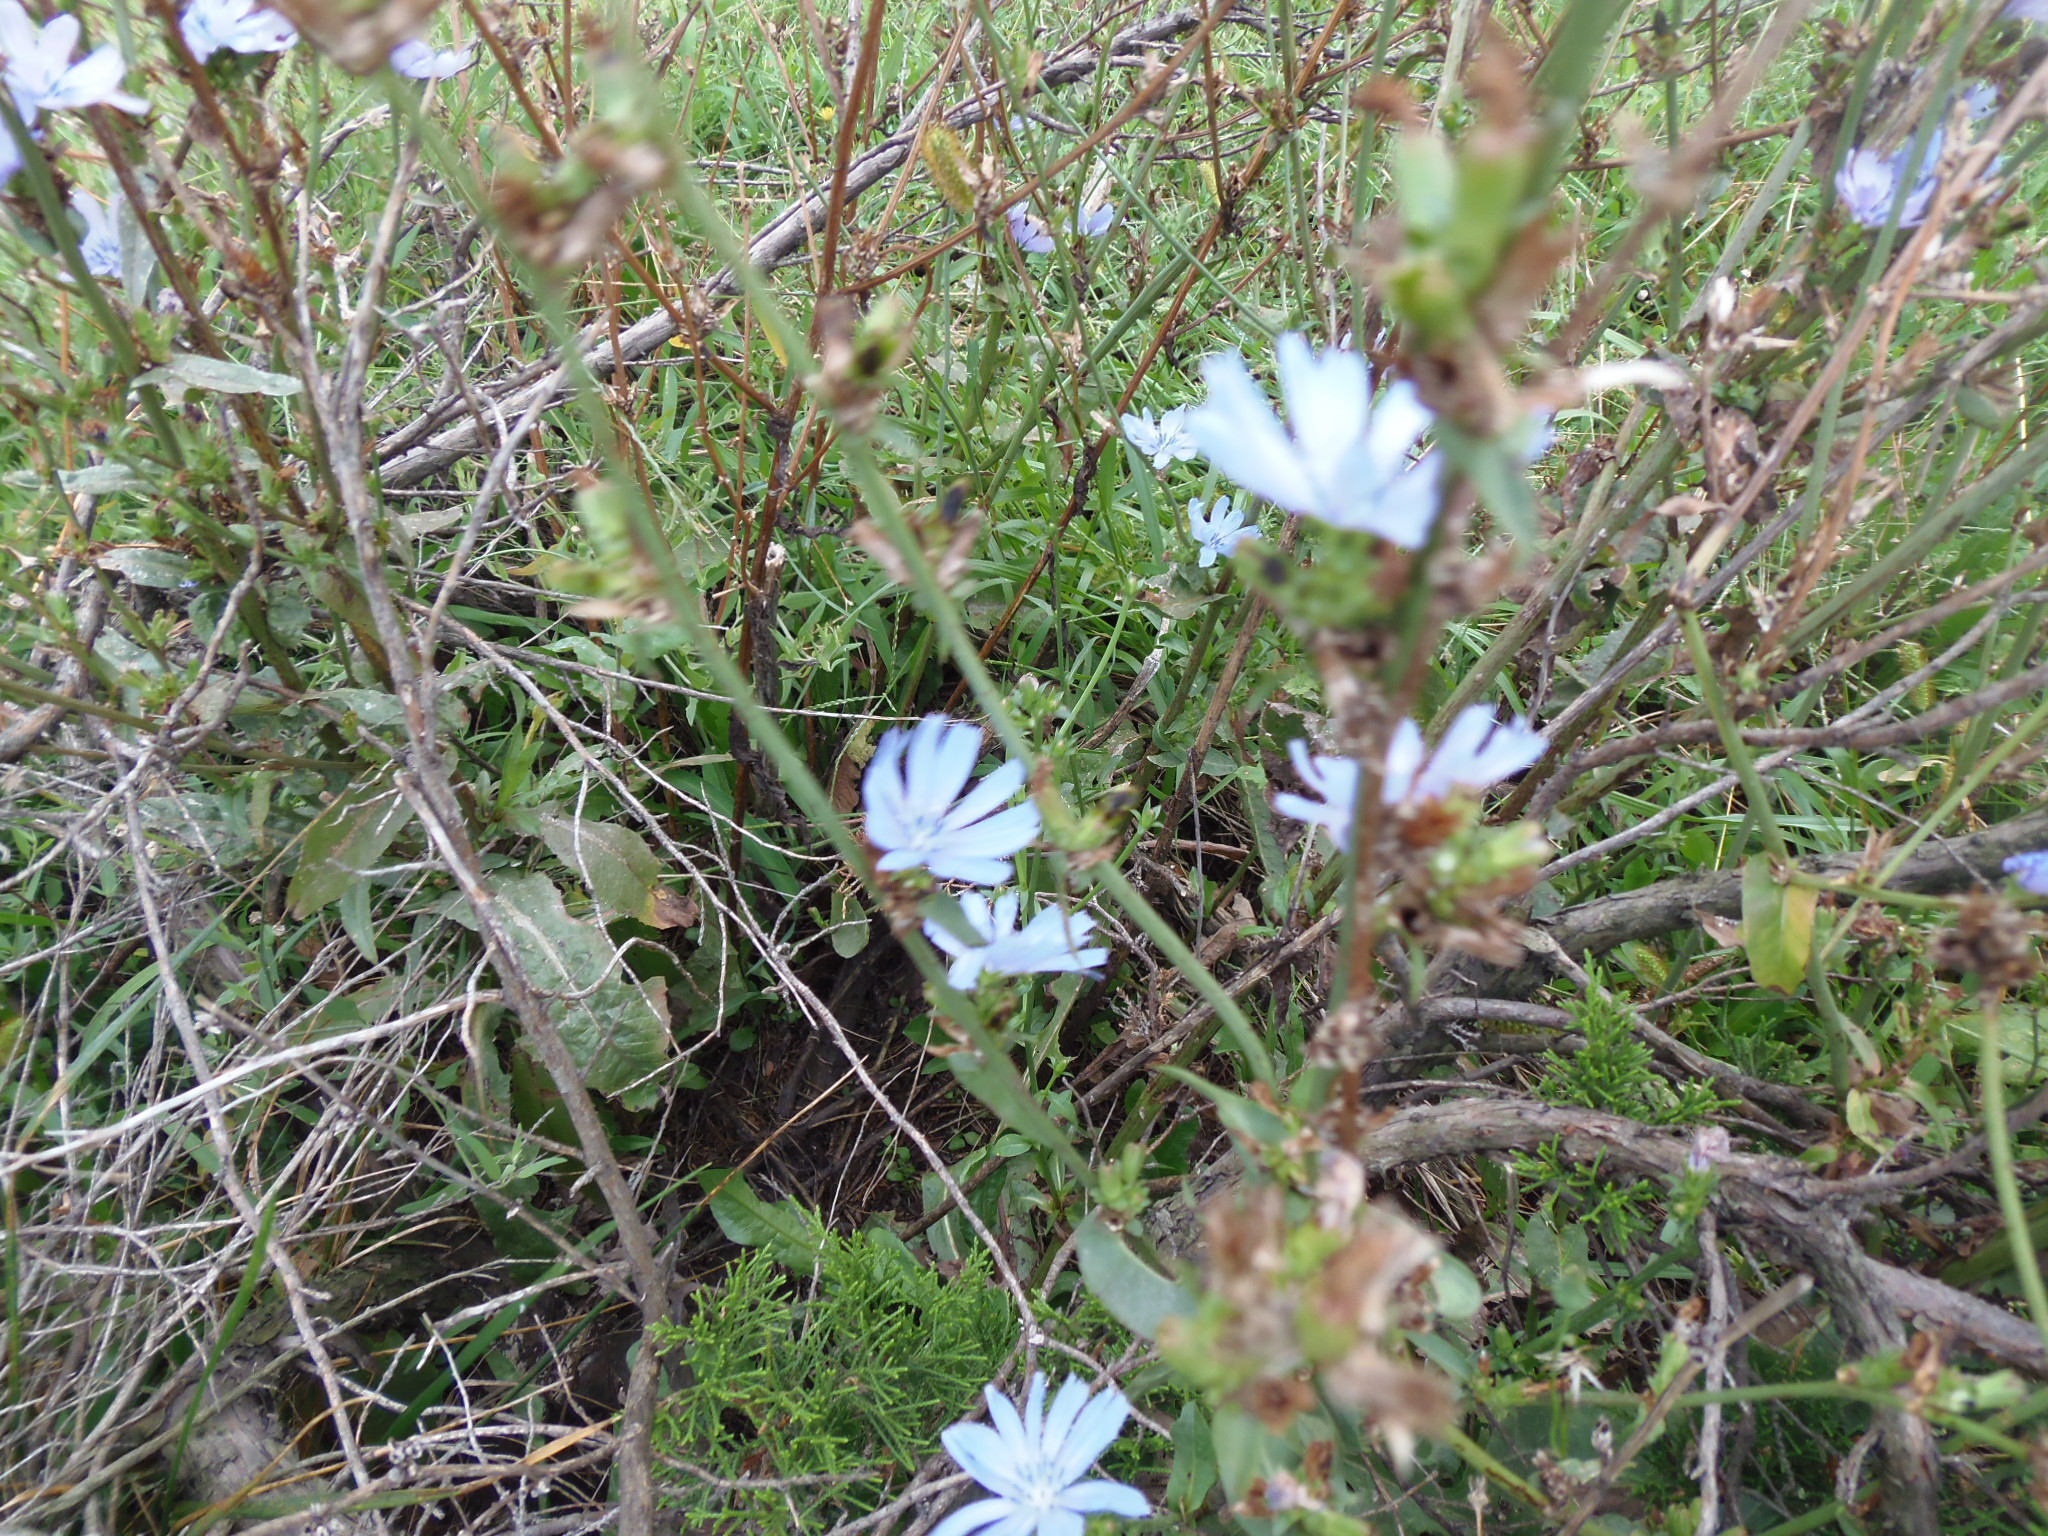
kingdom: Plantae
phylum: Tracheophyta
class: Magnoliopsida
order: Asterales
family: Asteraceae
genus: Cichorium
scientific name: Cichorium intybus
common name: Chicory
